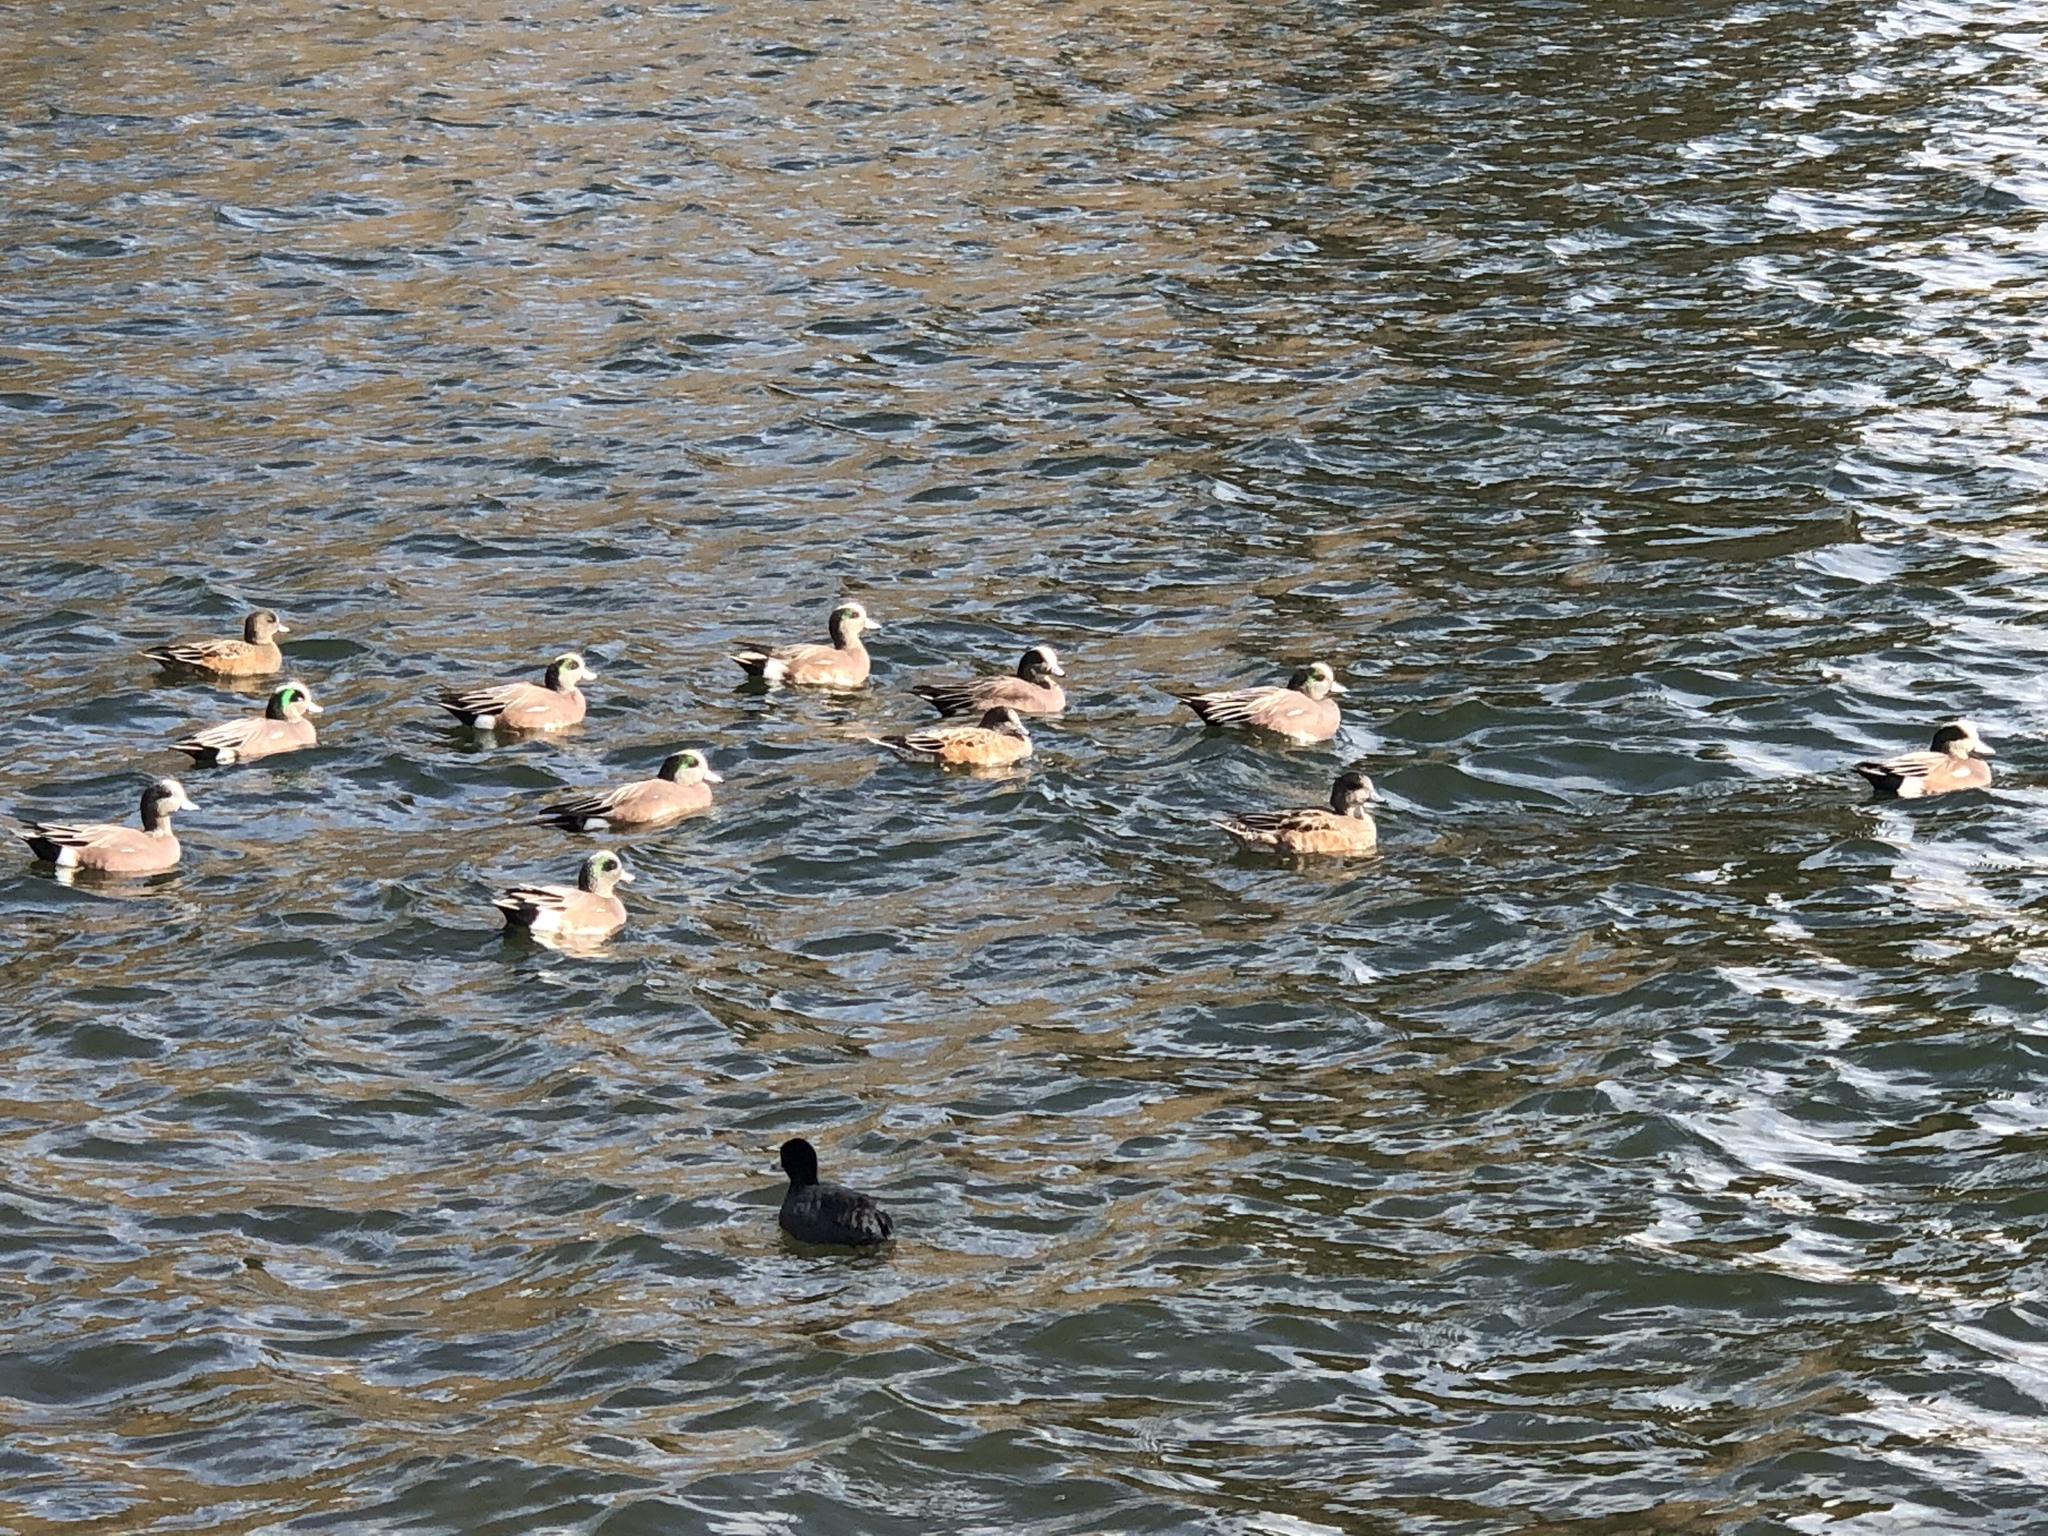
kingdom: Animalia
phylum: Chordata
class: Aves
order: Anseriformes
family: Anatidae
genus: Mareca
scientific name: Mareca americana
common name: American wigeon
